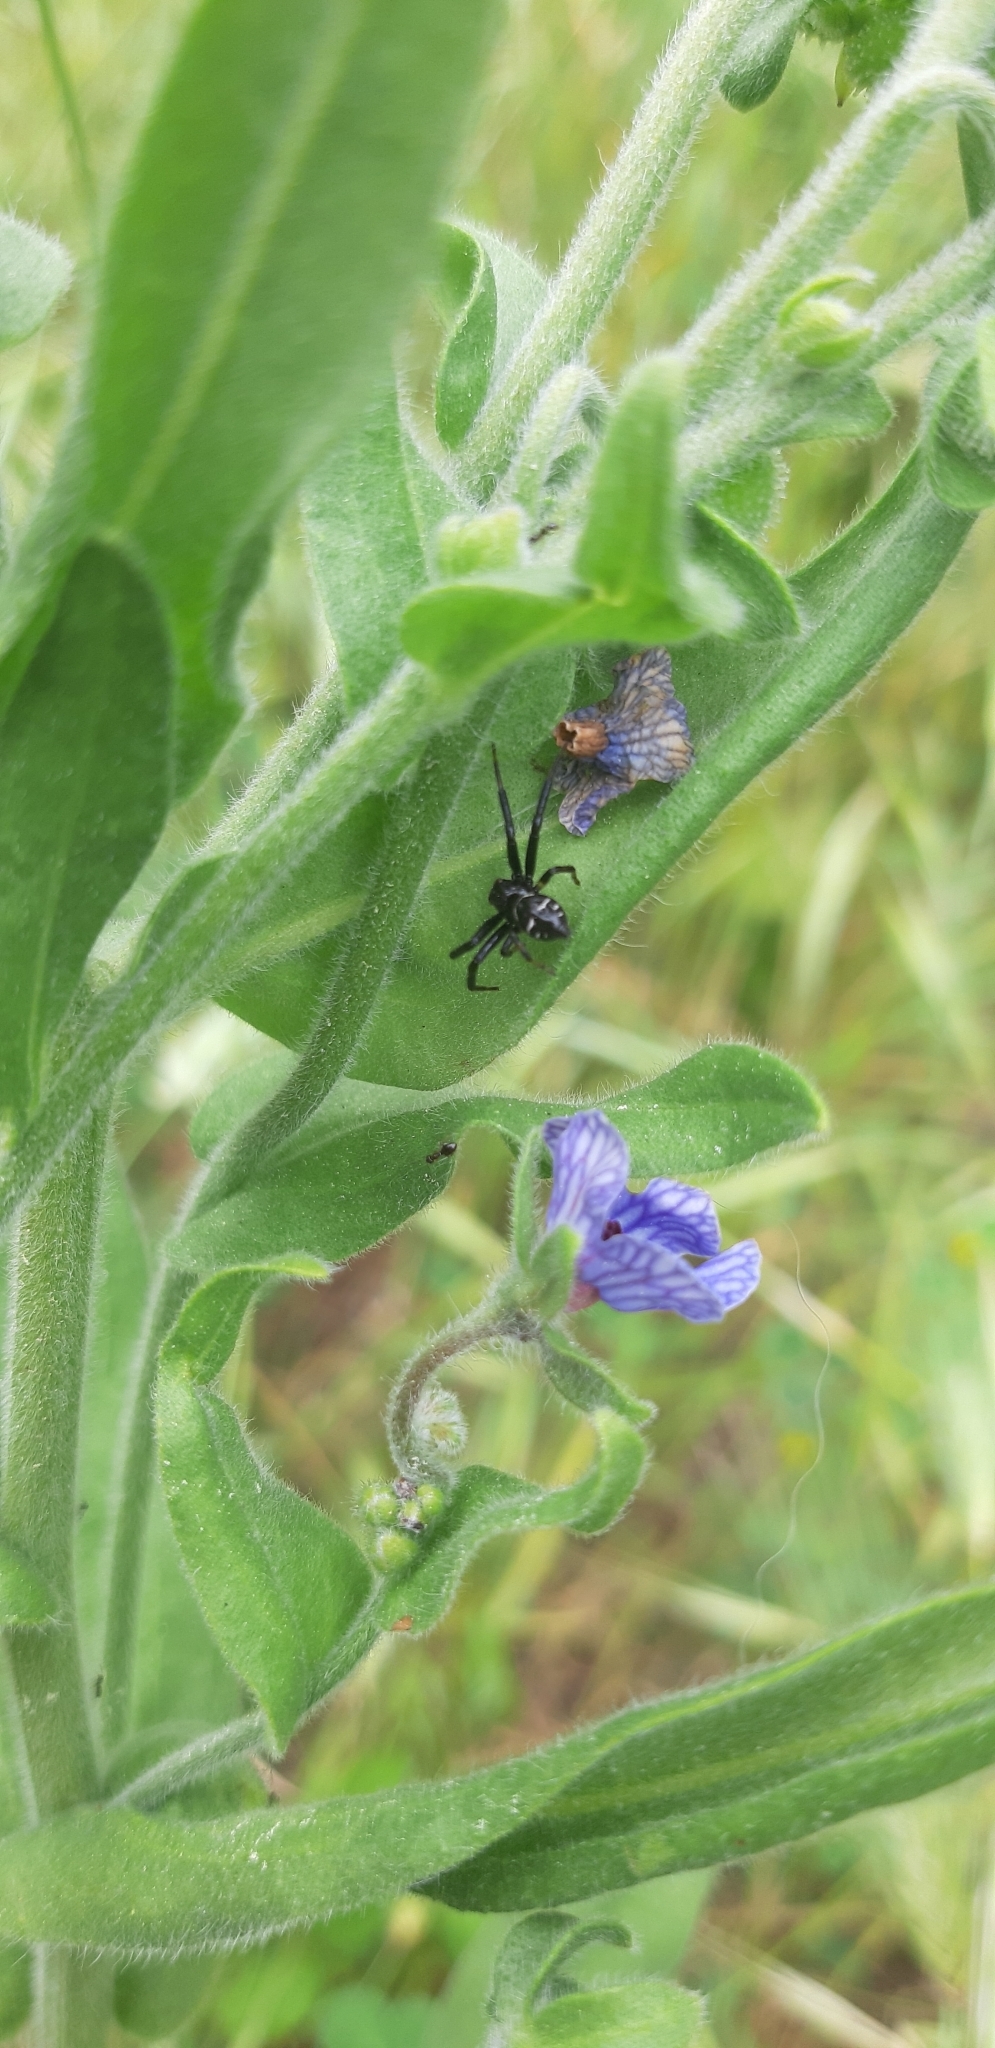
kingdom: Animalia
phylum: Arthropoda
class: Arachnida
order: Araneae
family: Thomisidae
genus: Synema
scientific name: Synema globosum
